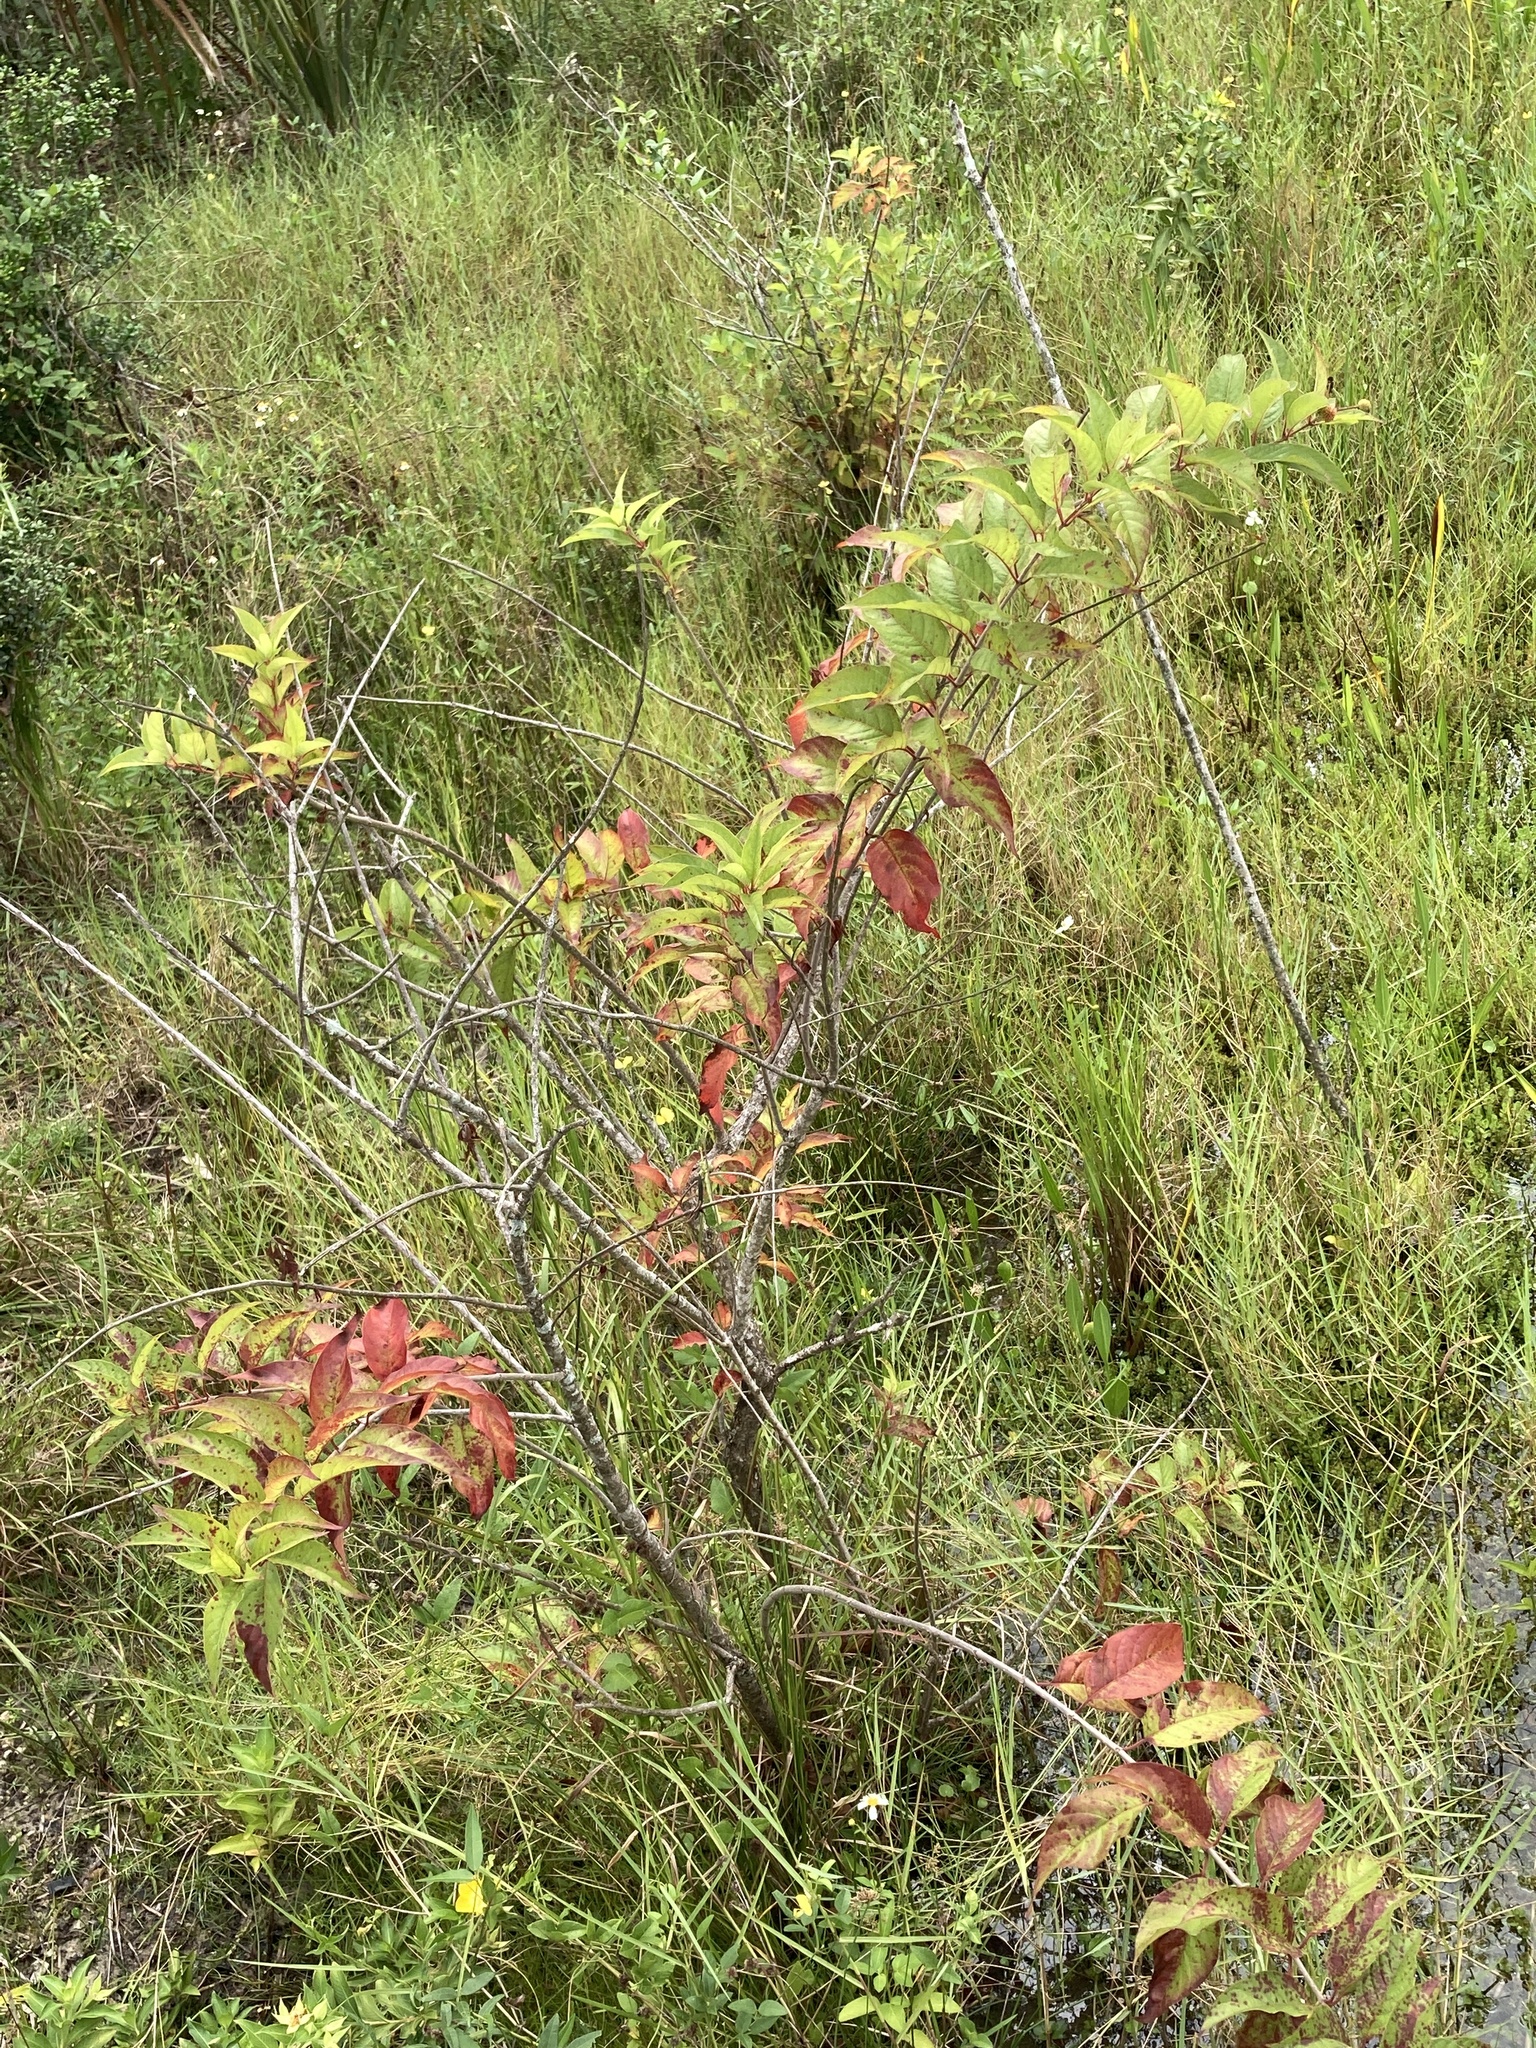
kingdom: Plantae
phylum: Tracheophyta
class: Magnoliopsida
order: Gentianales
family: Rubiaceae
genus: Cephalanthus
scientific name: Cephalanthus occidentalis
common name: Button-willow
